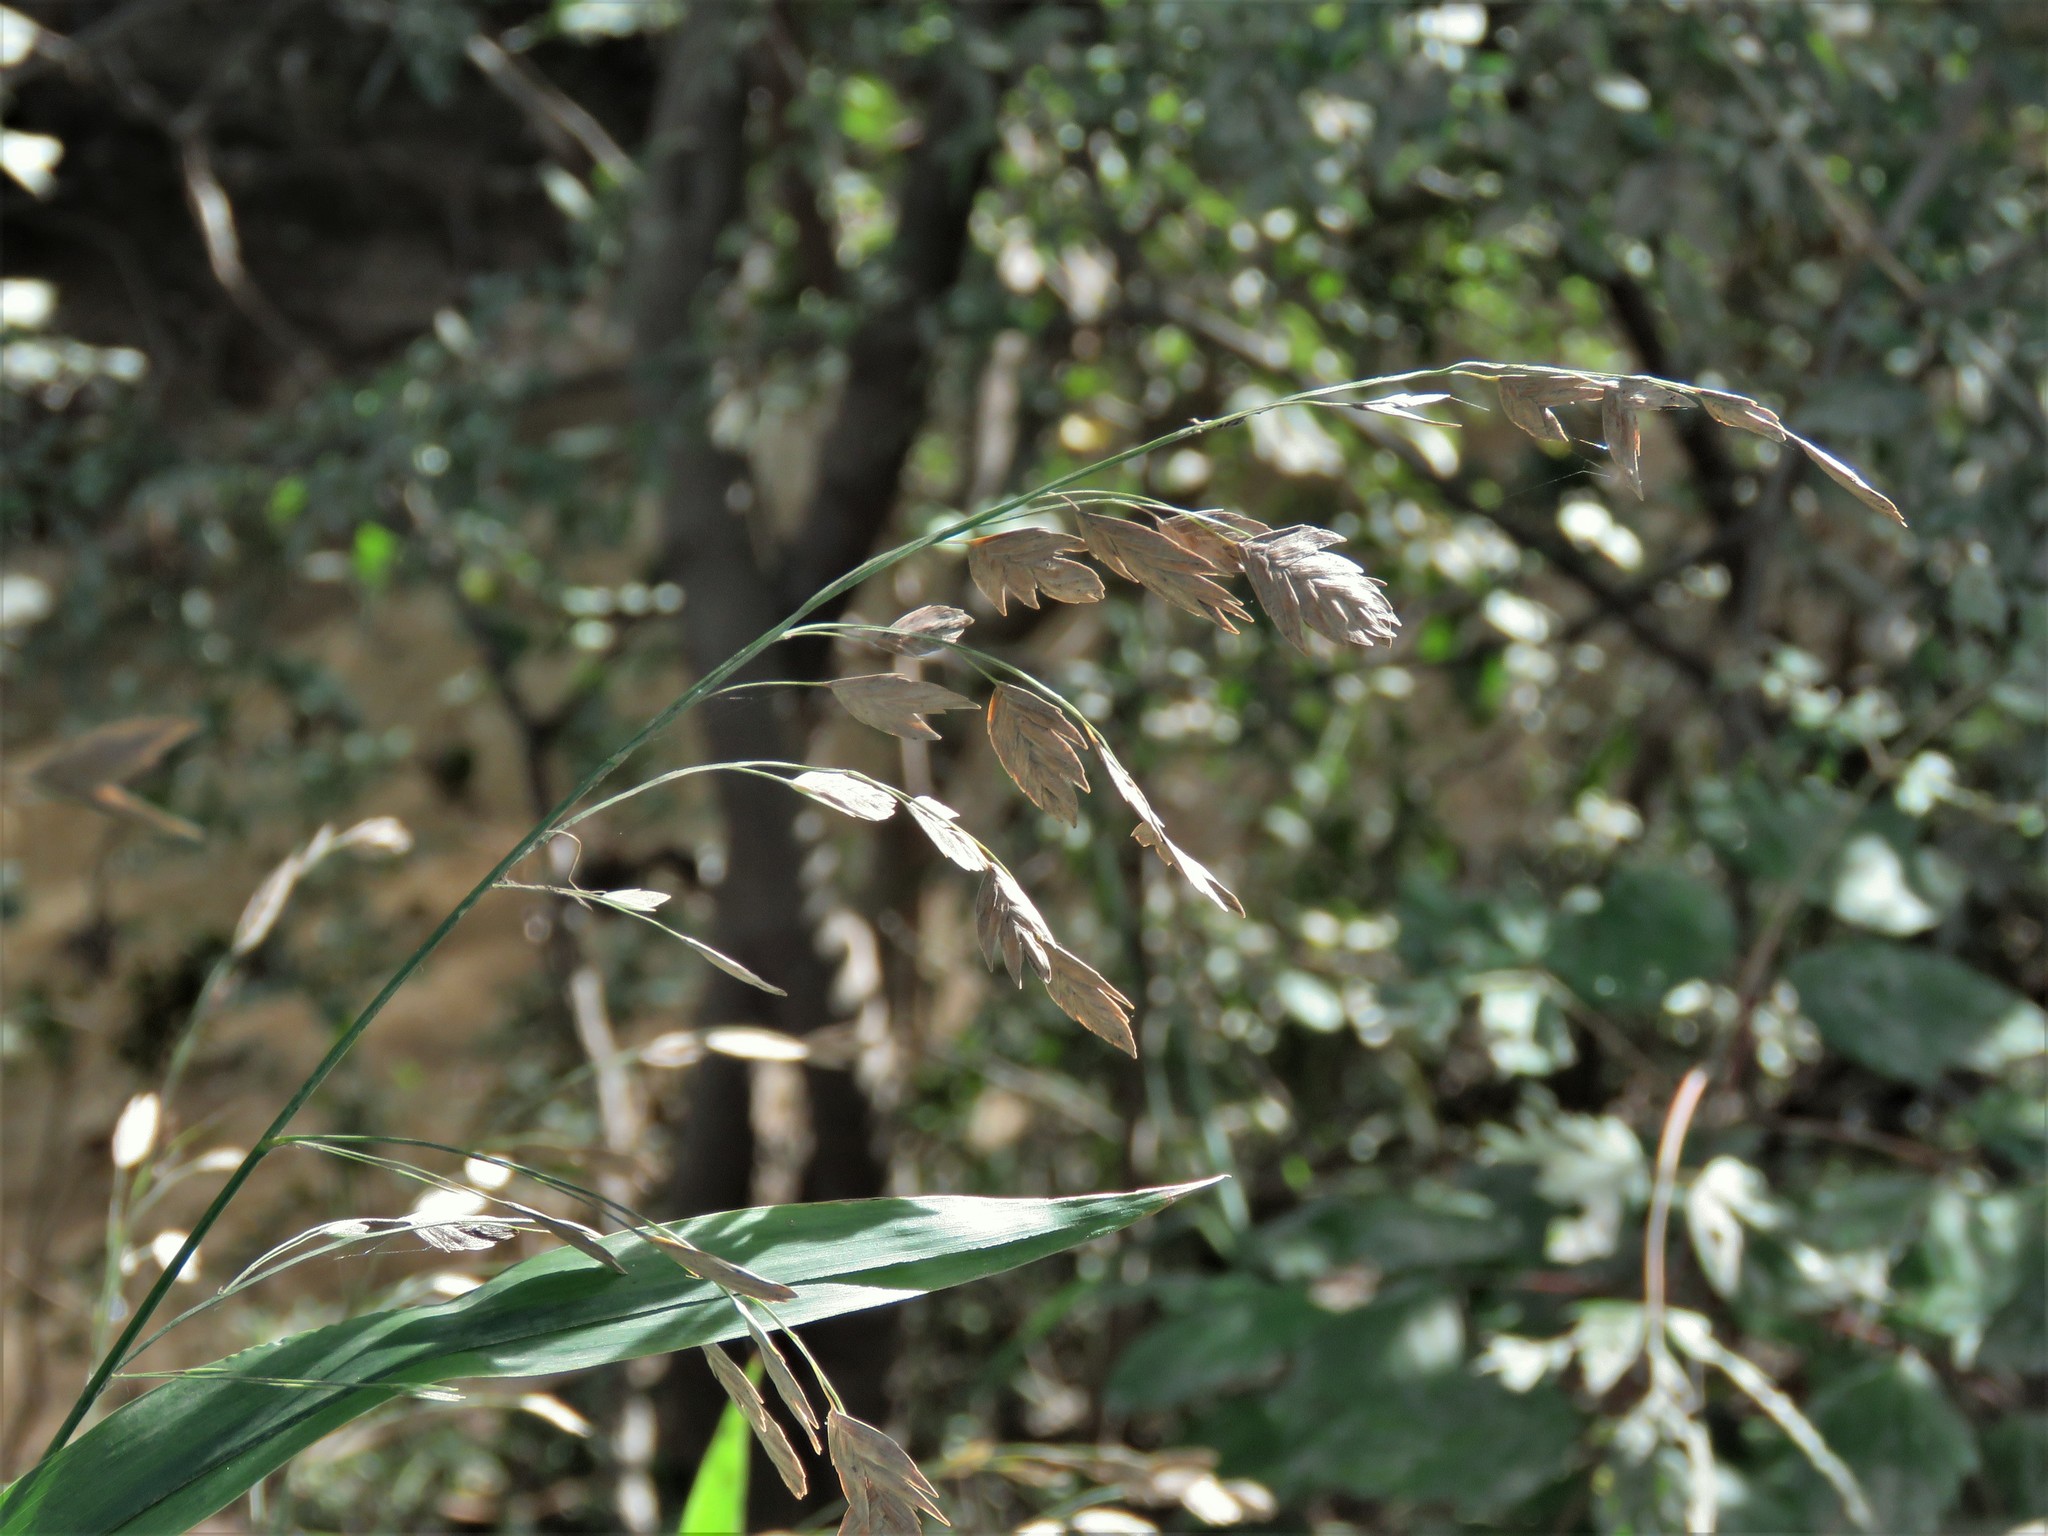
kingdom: Plantae
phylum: Tracheophyta
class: Liliopsida
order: Poales
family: Poaceae
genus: Chasmanthium
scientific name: Chasmanthium latifolium
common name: Broad-leaved chasmanthium
